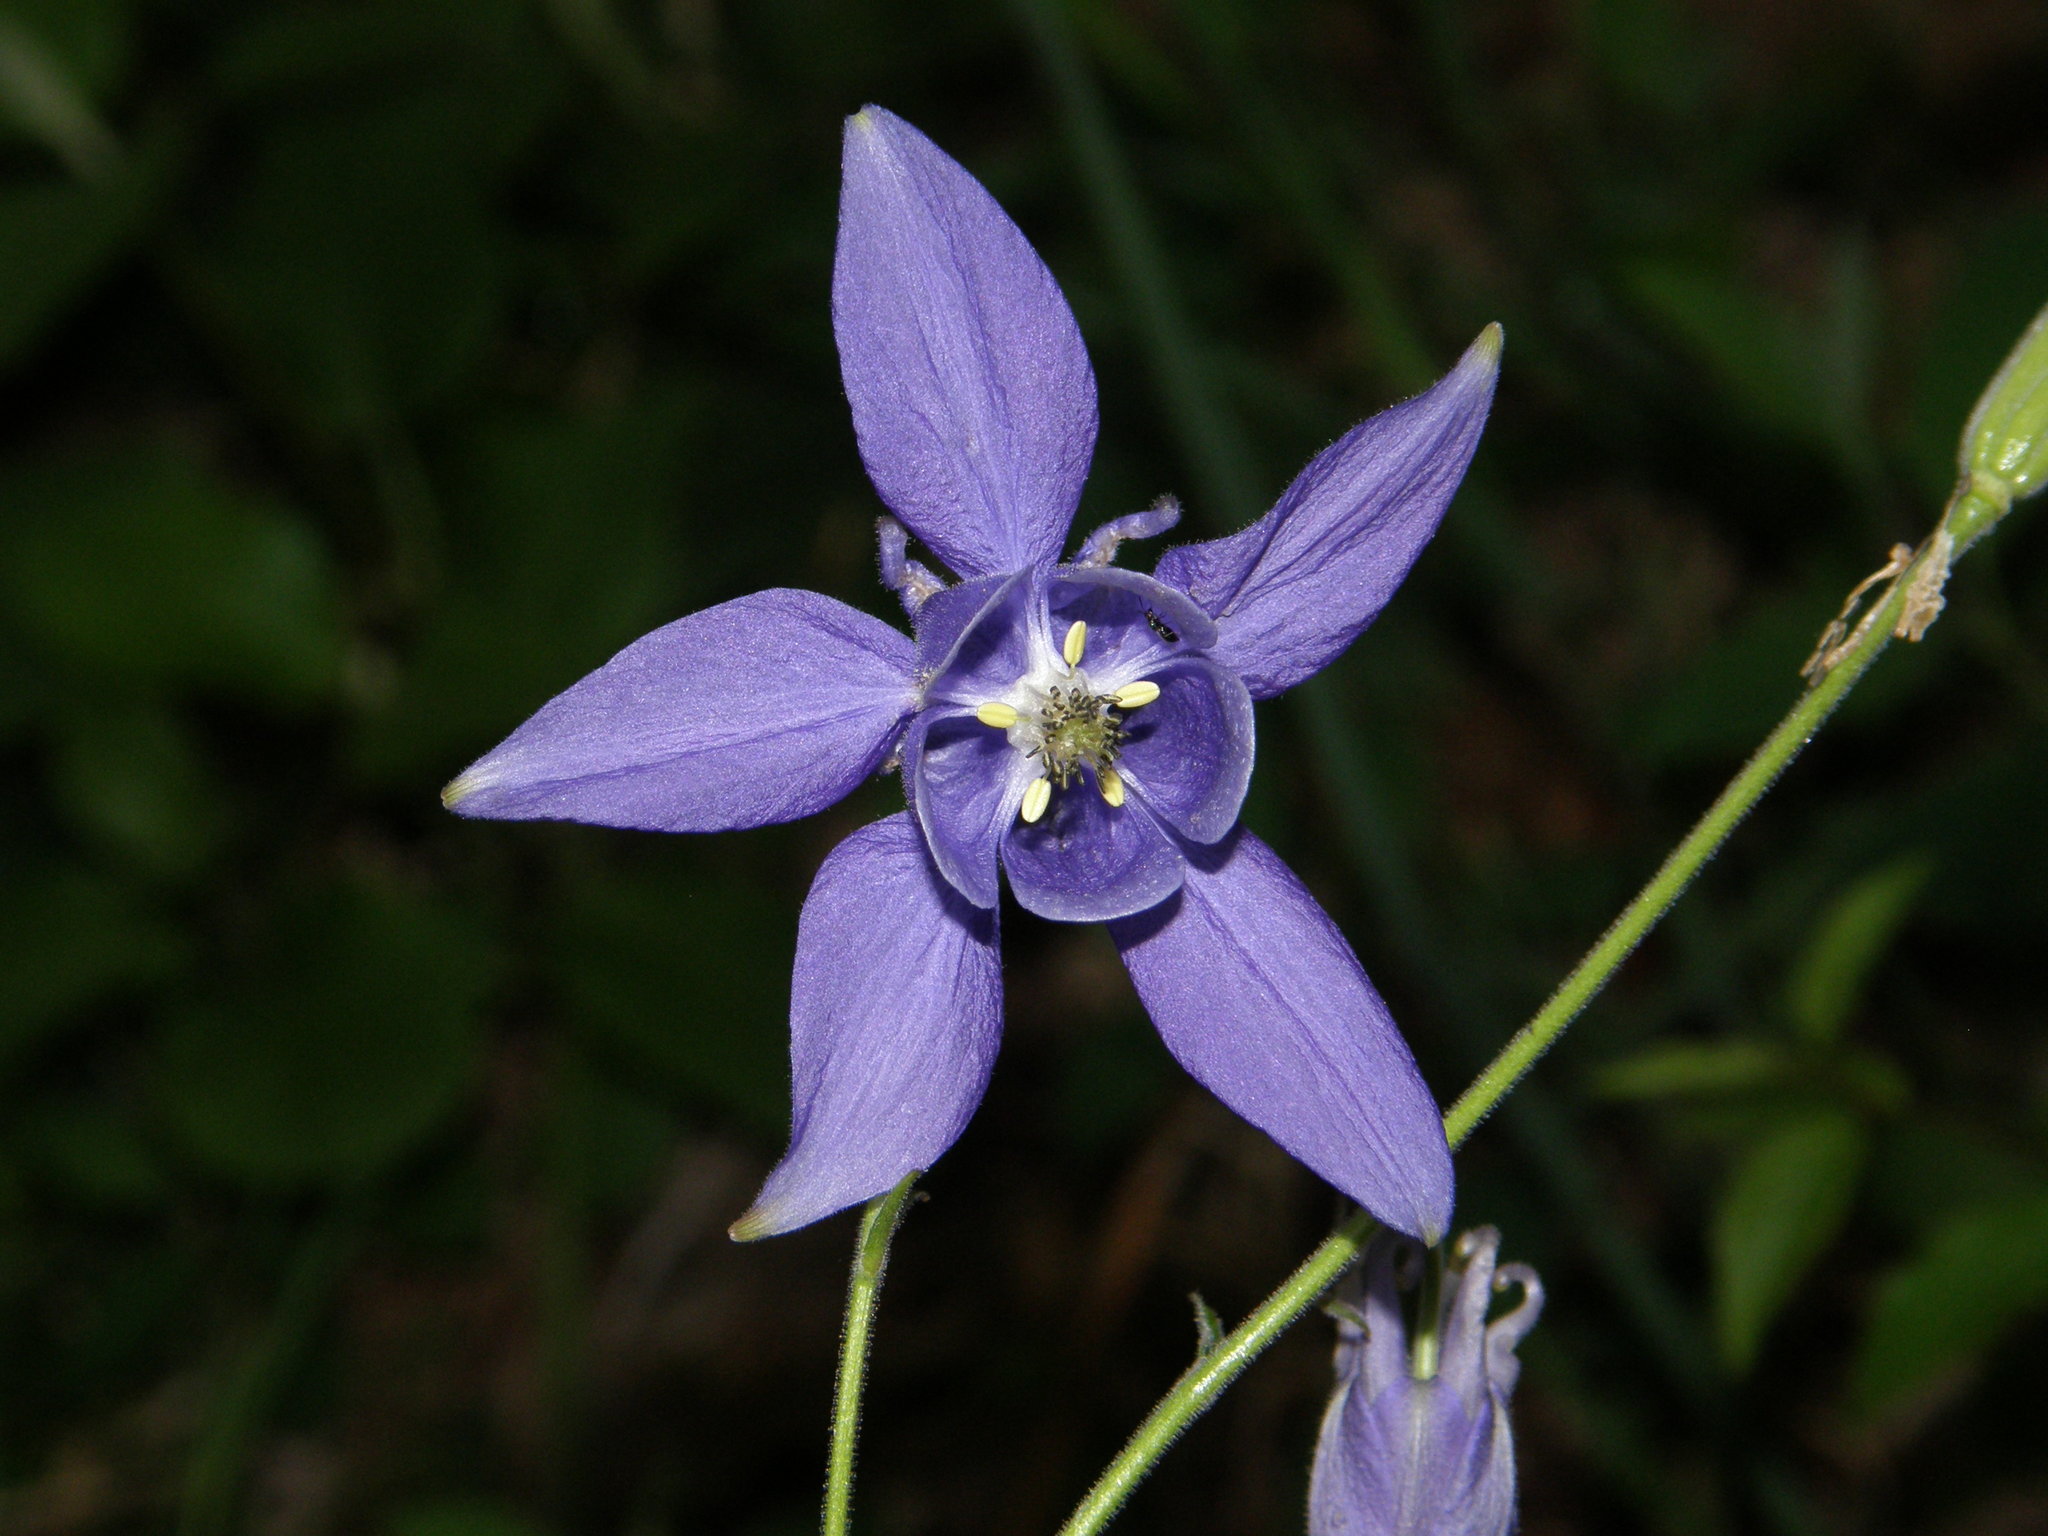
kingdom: Plantae
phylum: Tracheophyta
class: Magnoliopsida
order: Ranunculales
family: Ranunculaceae
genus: Aquilegia
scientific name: Aquilegia vulgaris
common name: Columbine
